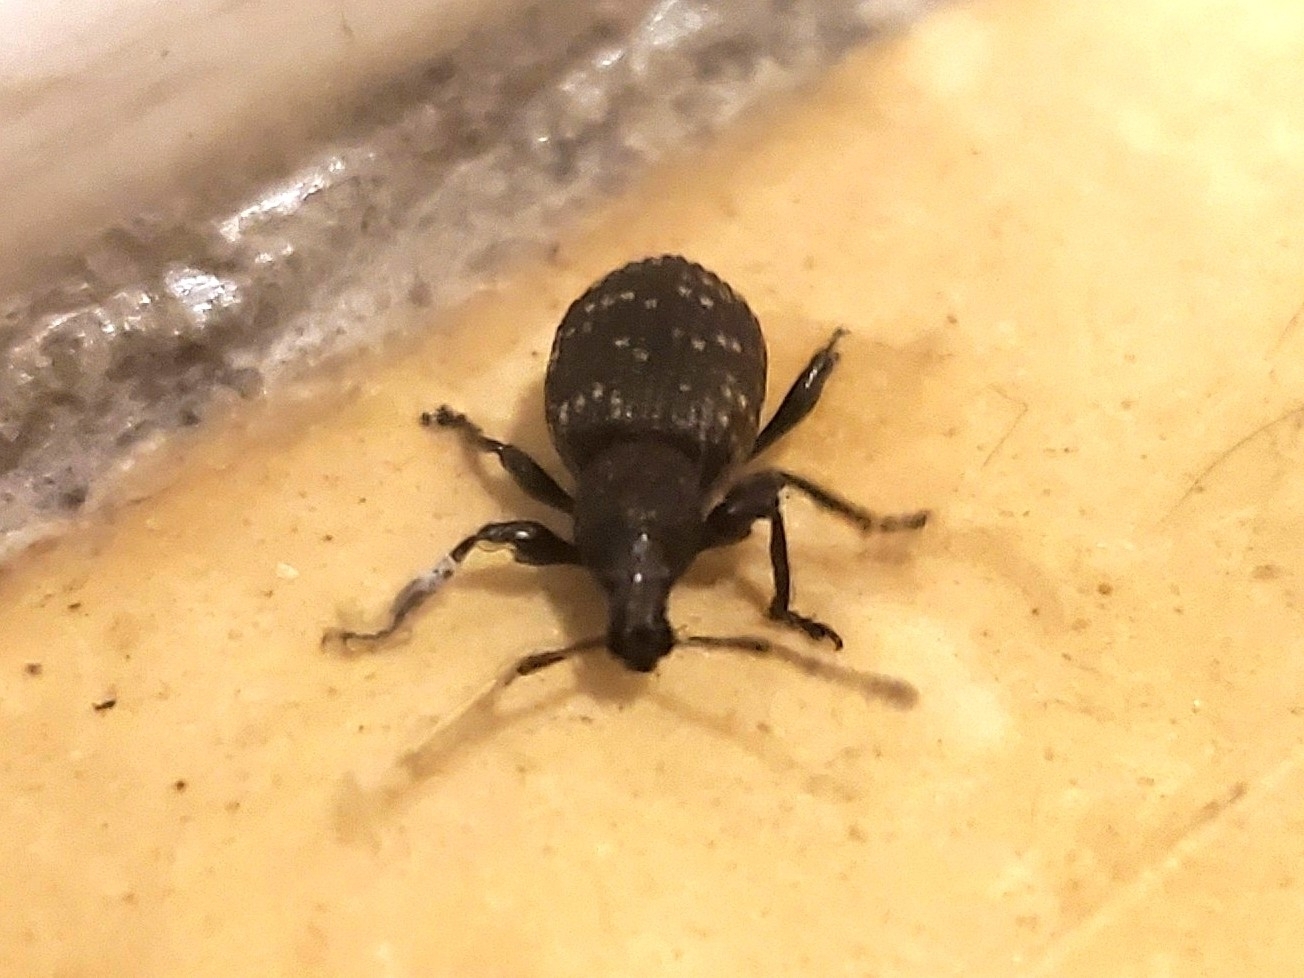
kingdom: Animalia
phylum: Arthropoda
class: Insecta
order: Coleoptera
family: Curculionidae
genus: Otiorhynchus
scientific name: Otiorhynchus sulcatus
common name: Black vine weevil
